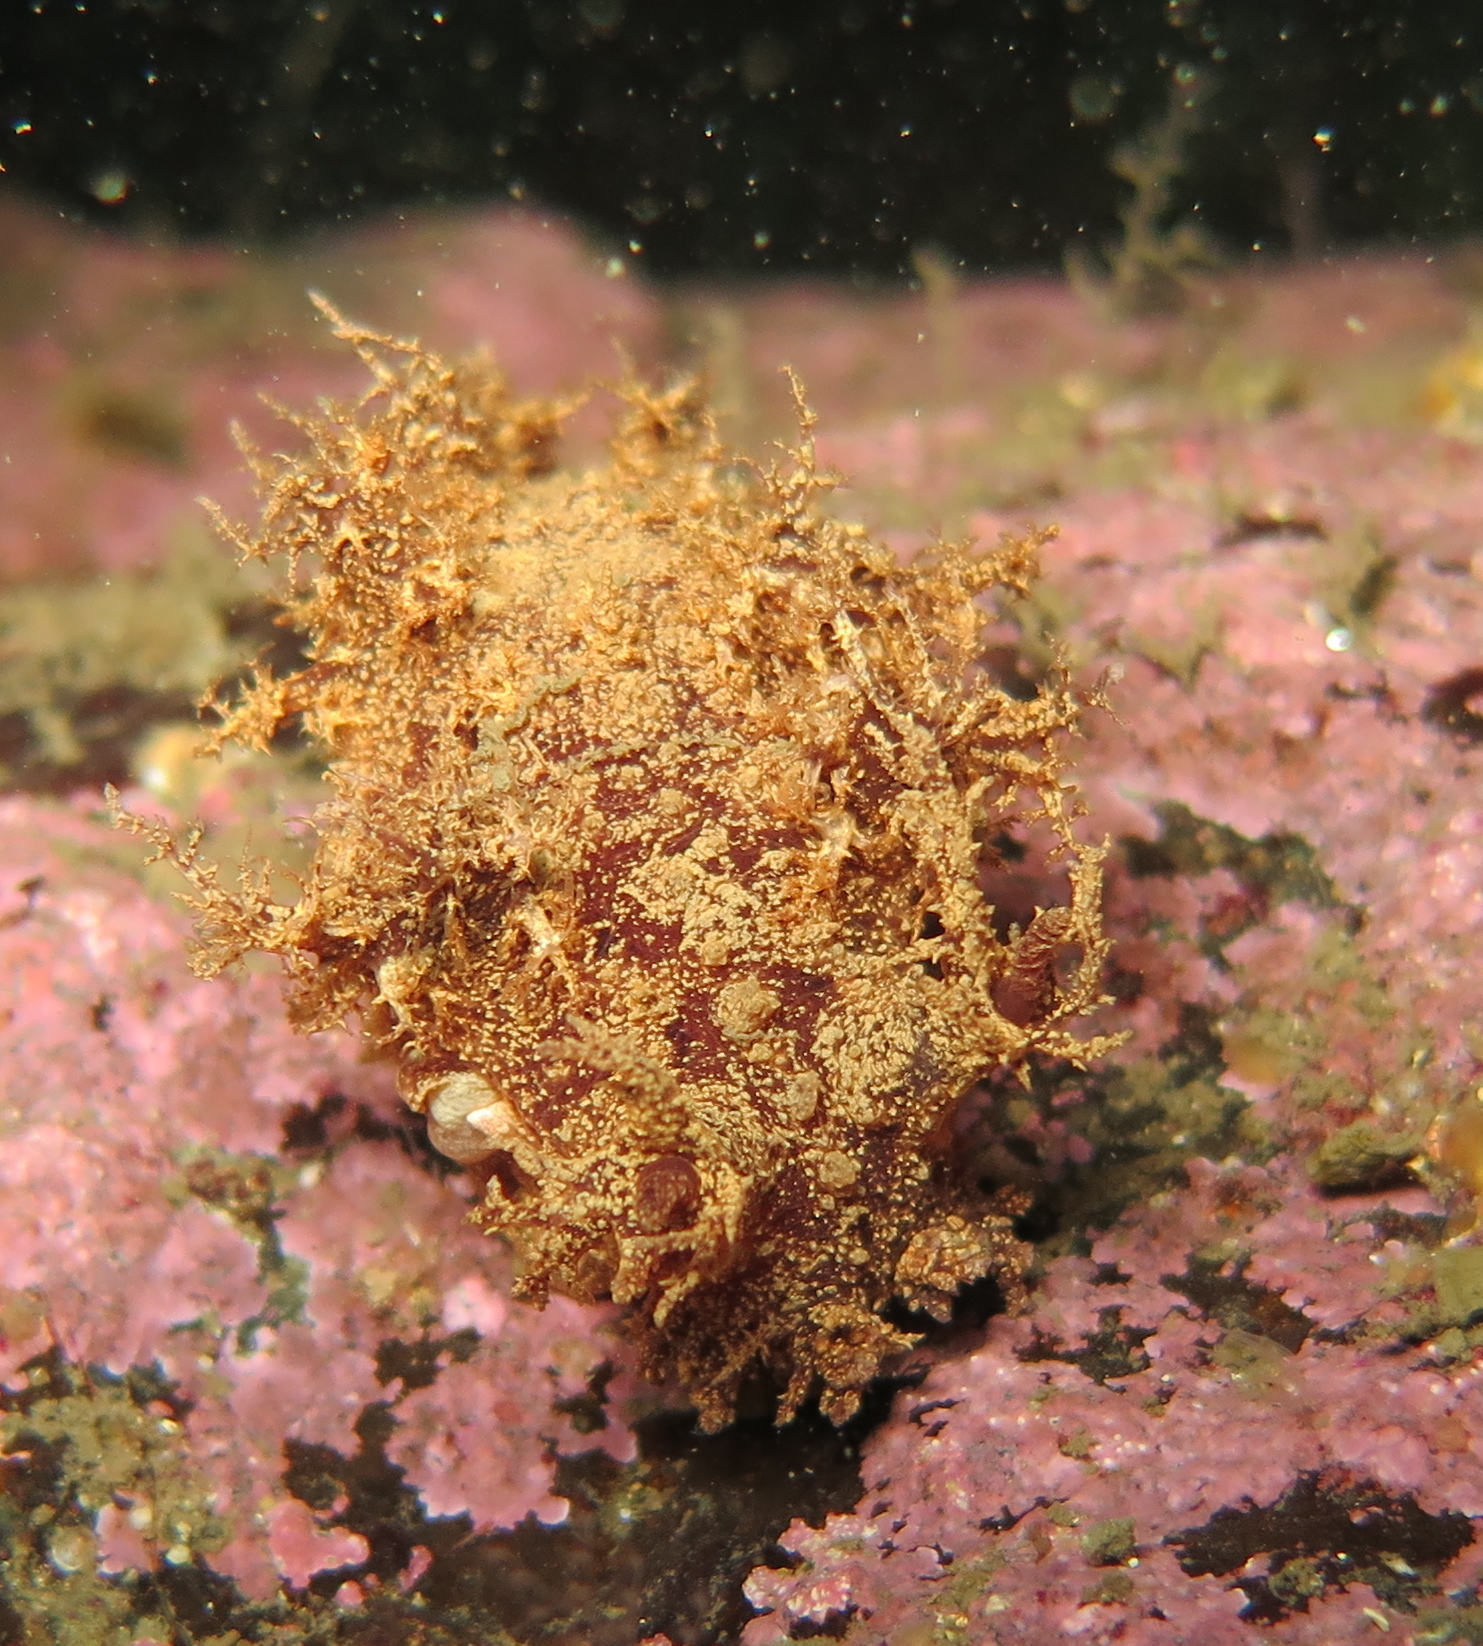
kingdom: Animalia
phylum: Mollusca
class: Gastropoda
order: Nudibranchia
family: Dendronotidae
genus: Dendronotus
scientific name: Dendronotus frondosus
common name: Bushy-backed nudibranch
